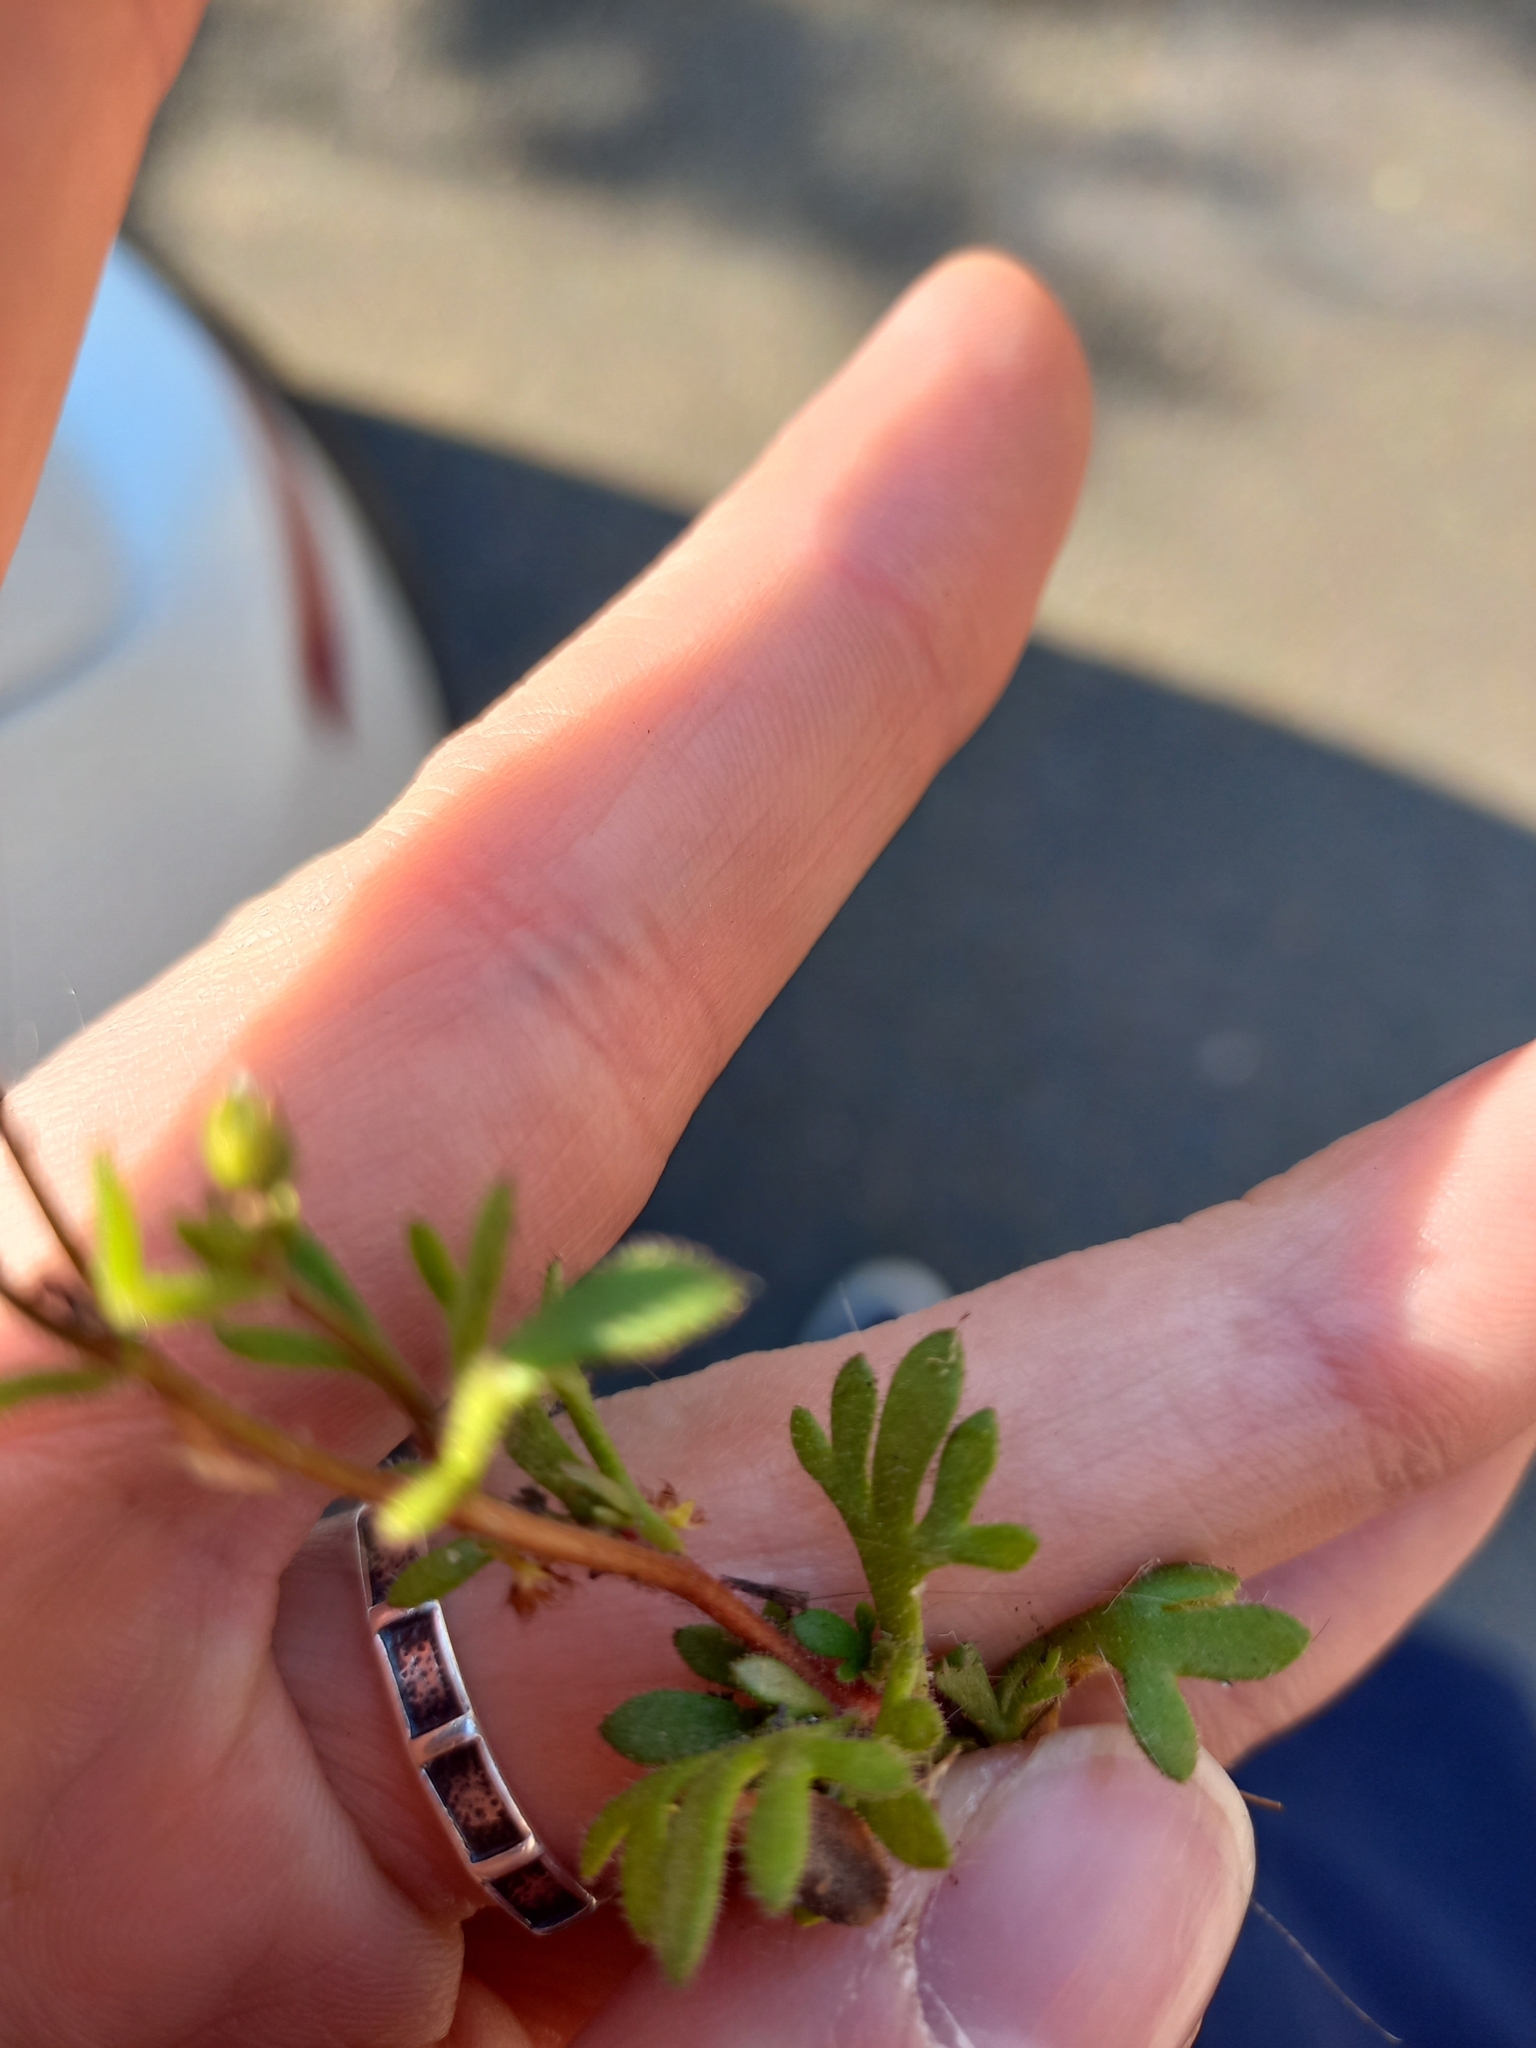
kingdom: Plantae
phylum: Tracheophyta
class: Magnoliopsida
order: Saxifragales
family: Saxifragaceae
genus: Saxifraga
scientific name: Saxifraga tridactylites
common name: Rue-leaved saxifrage
